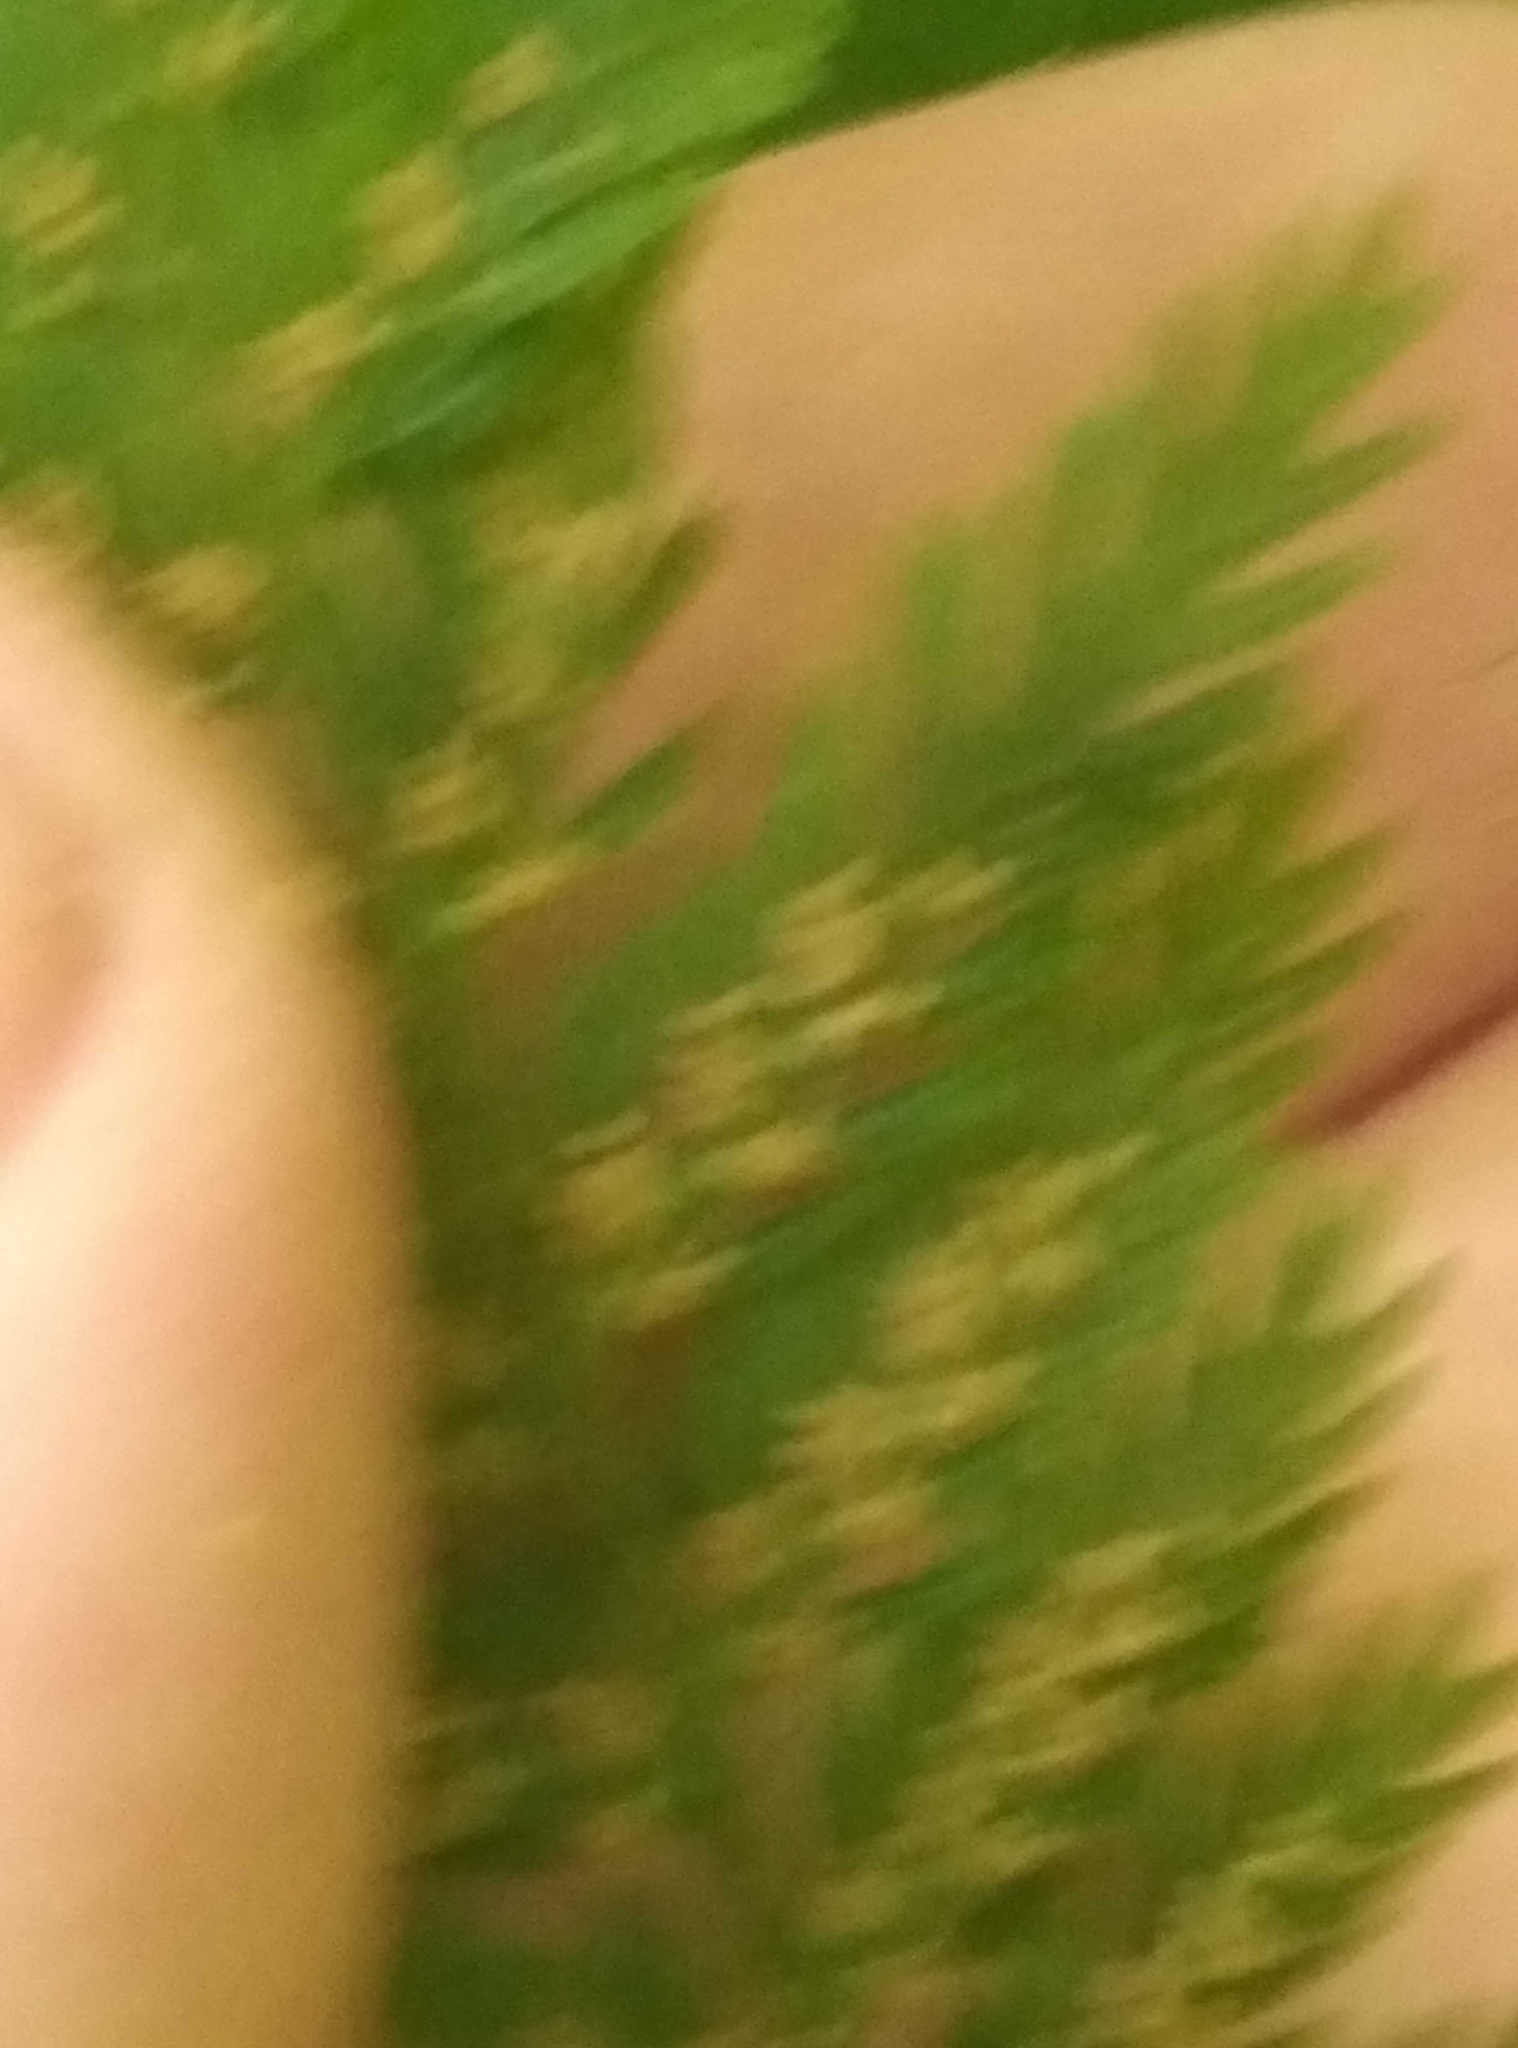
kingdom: Plantae
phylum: Tracheophyta
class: Polypodiopsida
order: Osmundales
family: Osmundaceae
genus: Leptopteris
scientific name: Leptopteris hymenophylloides
